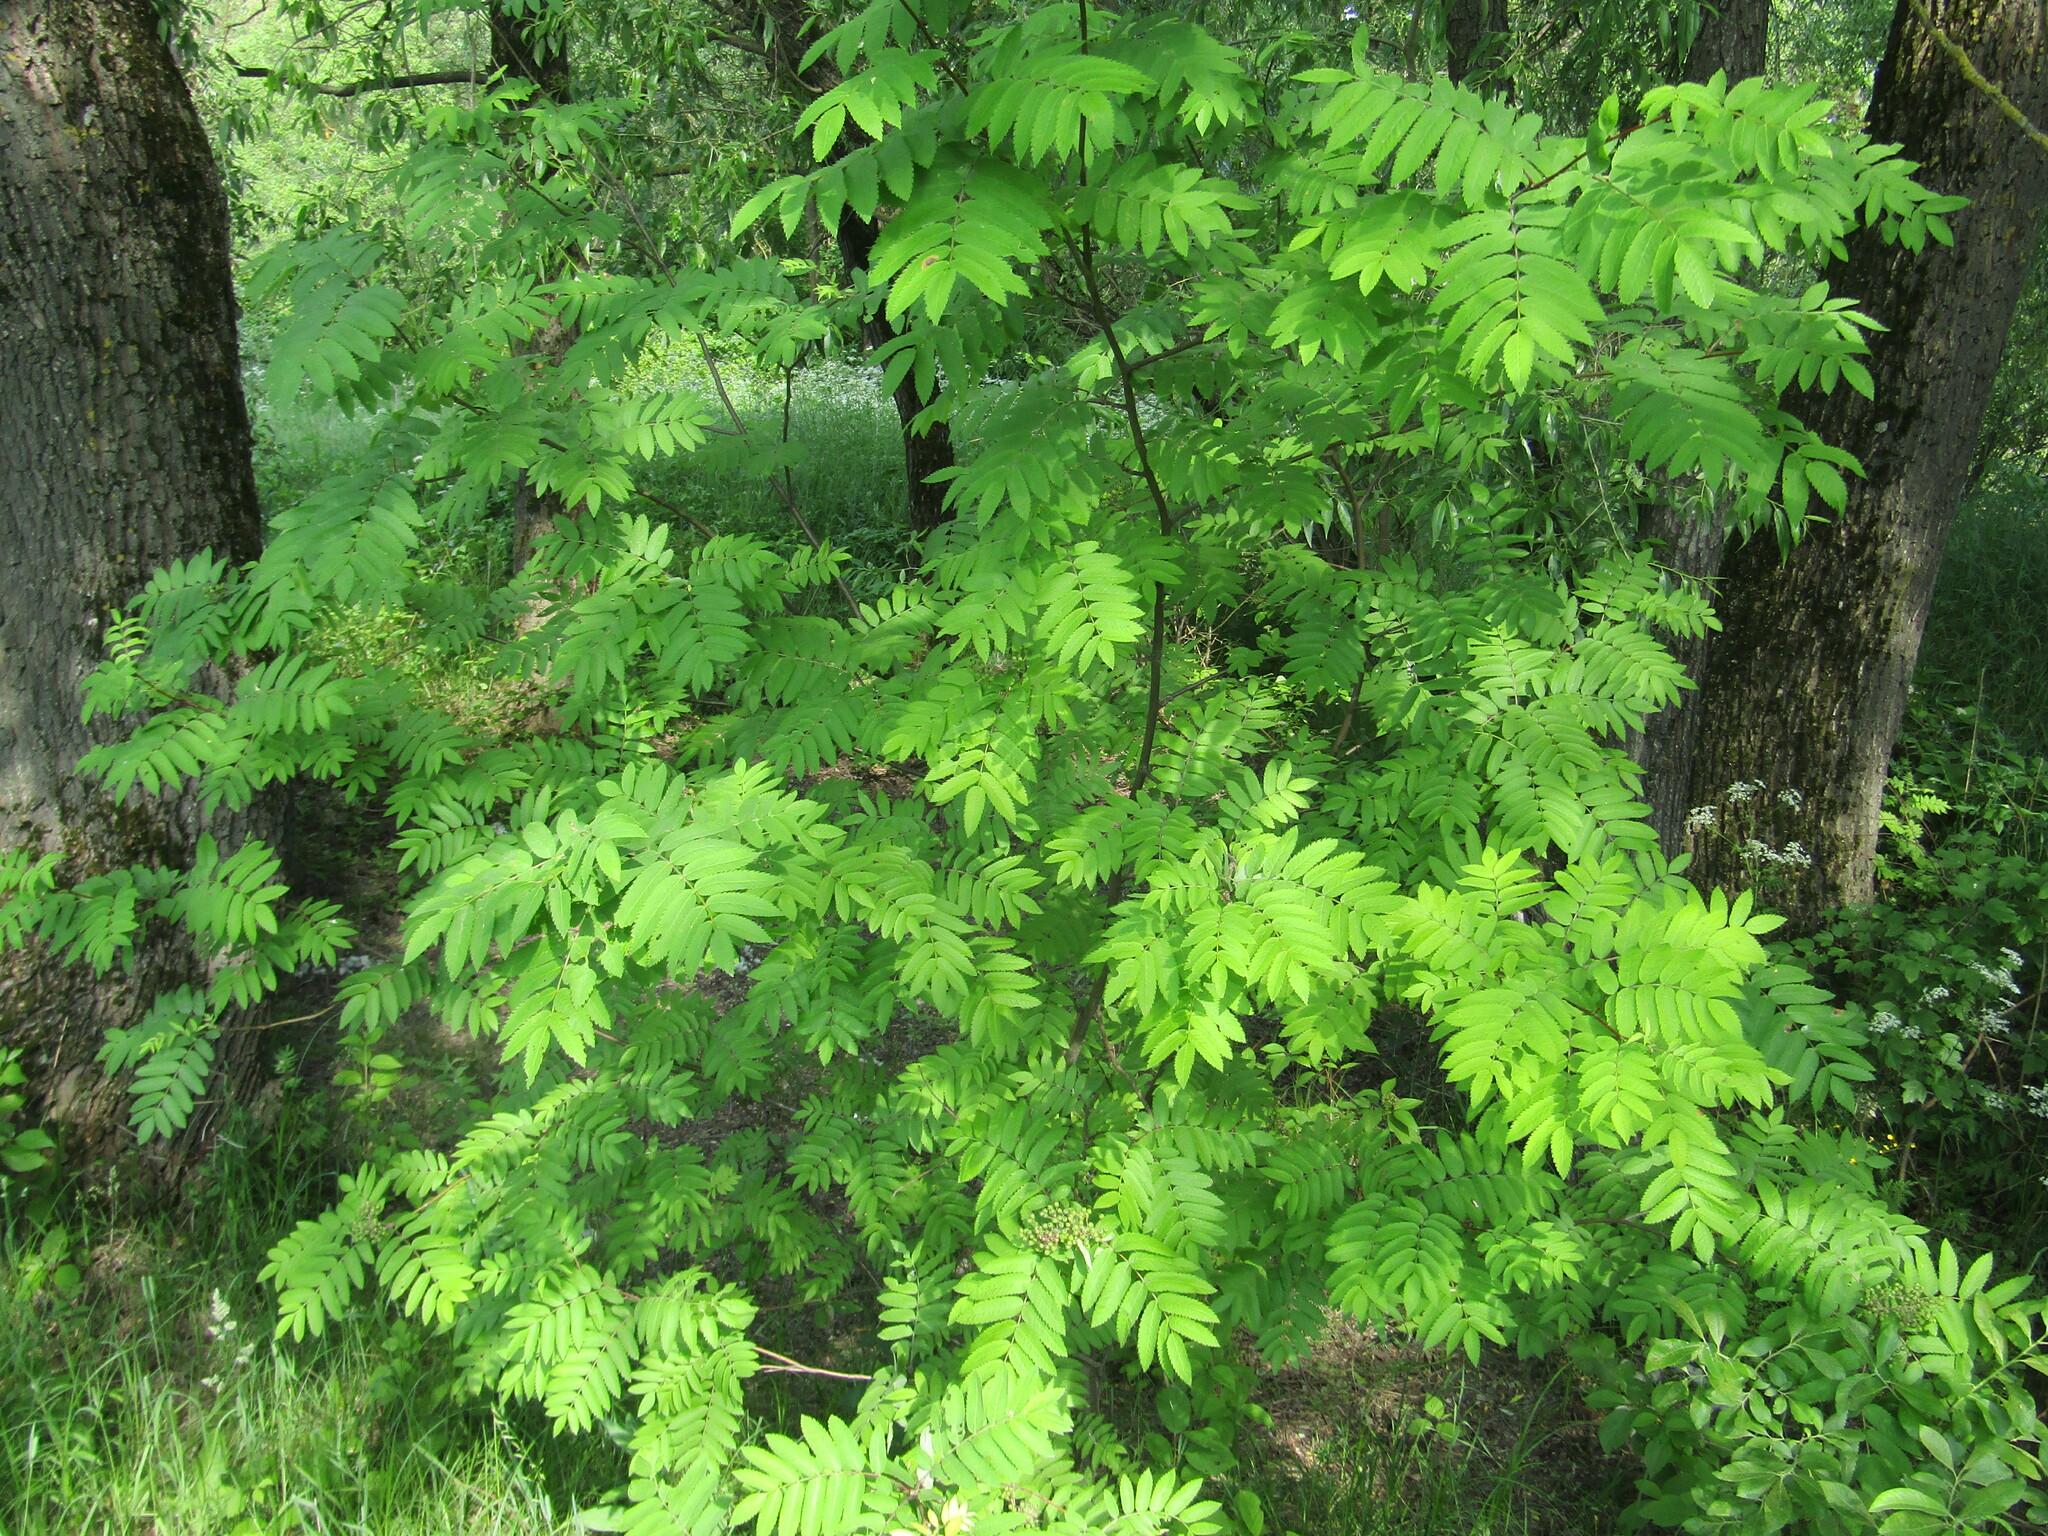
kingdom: Plantae
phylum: Tracheophyta
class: Magnoliopsida
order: Rosales
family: Rosaceae
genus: Sorbus
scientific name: Sorbus aucuparia
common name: Rowan
